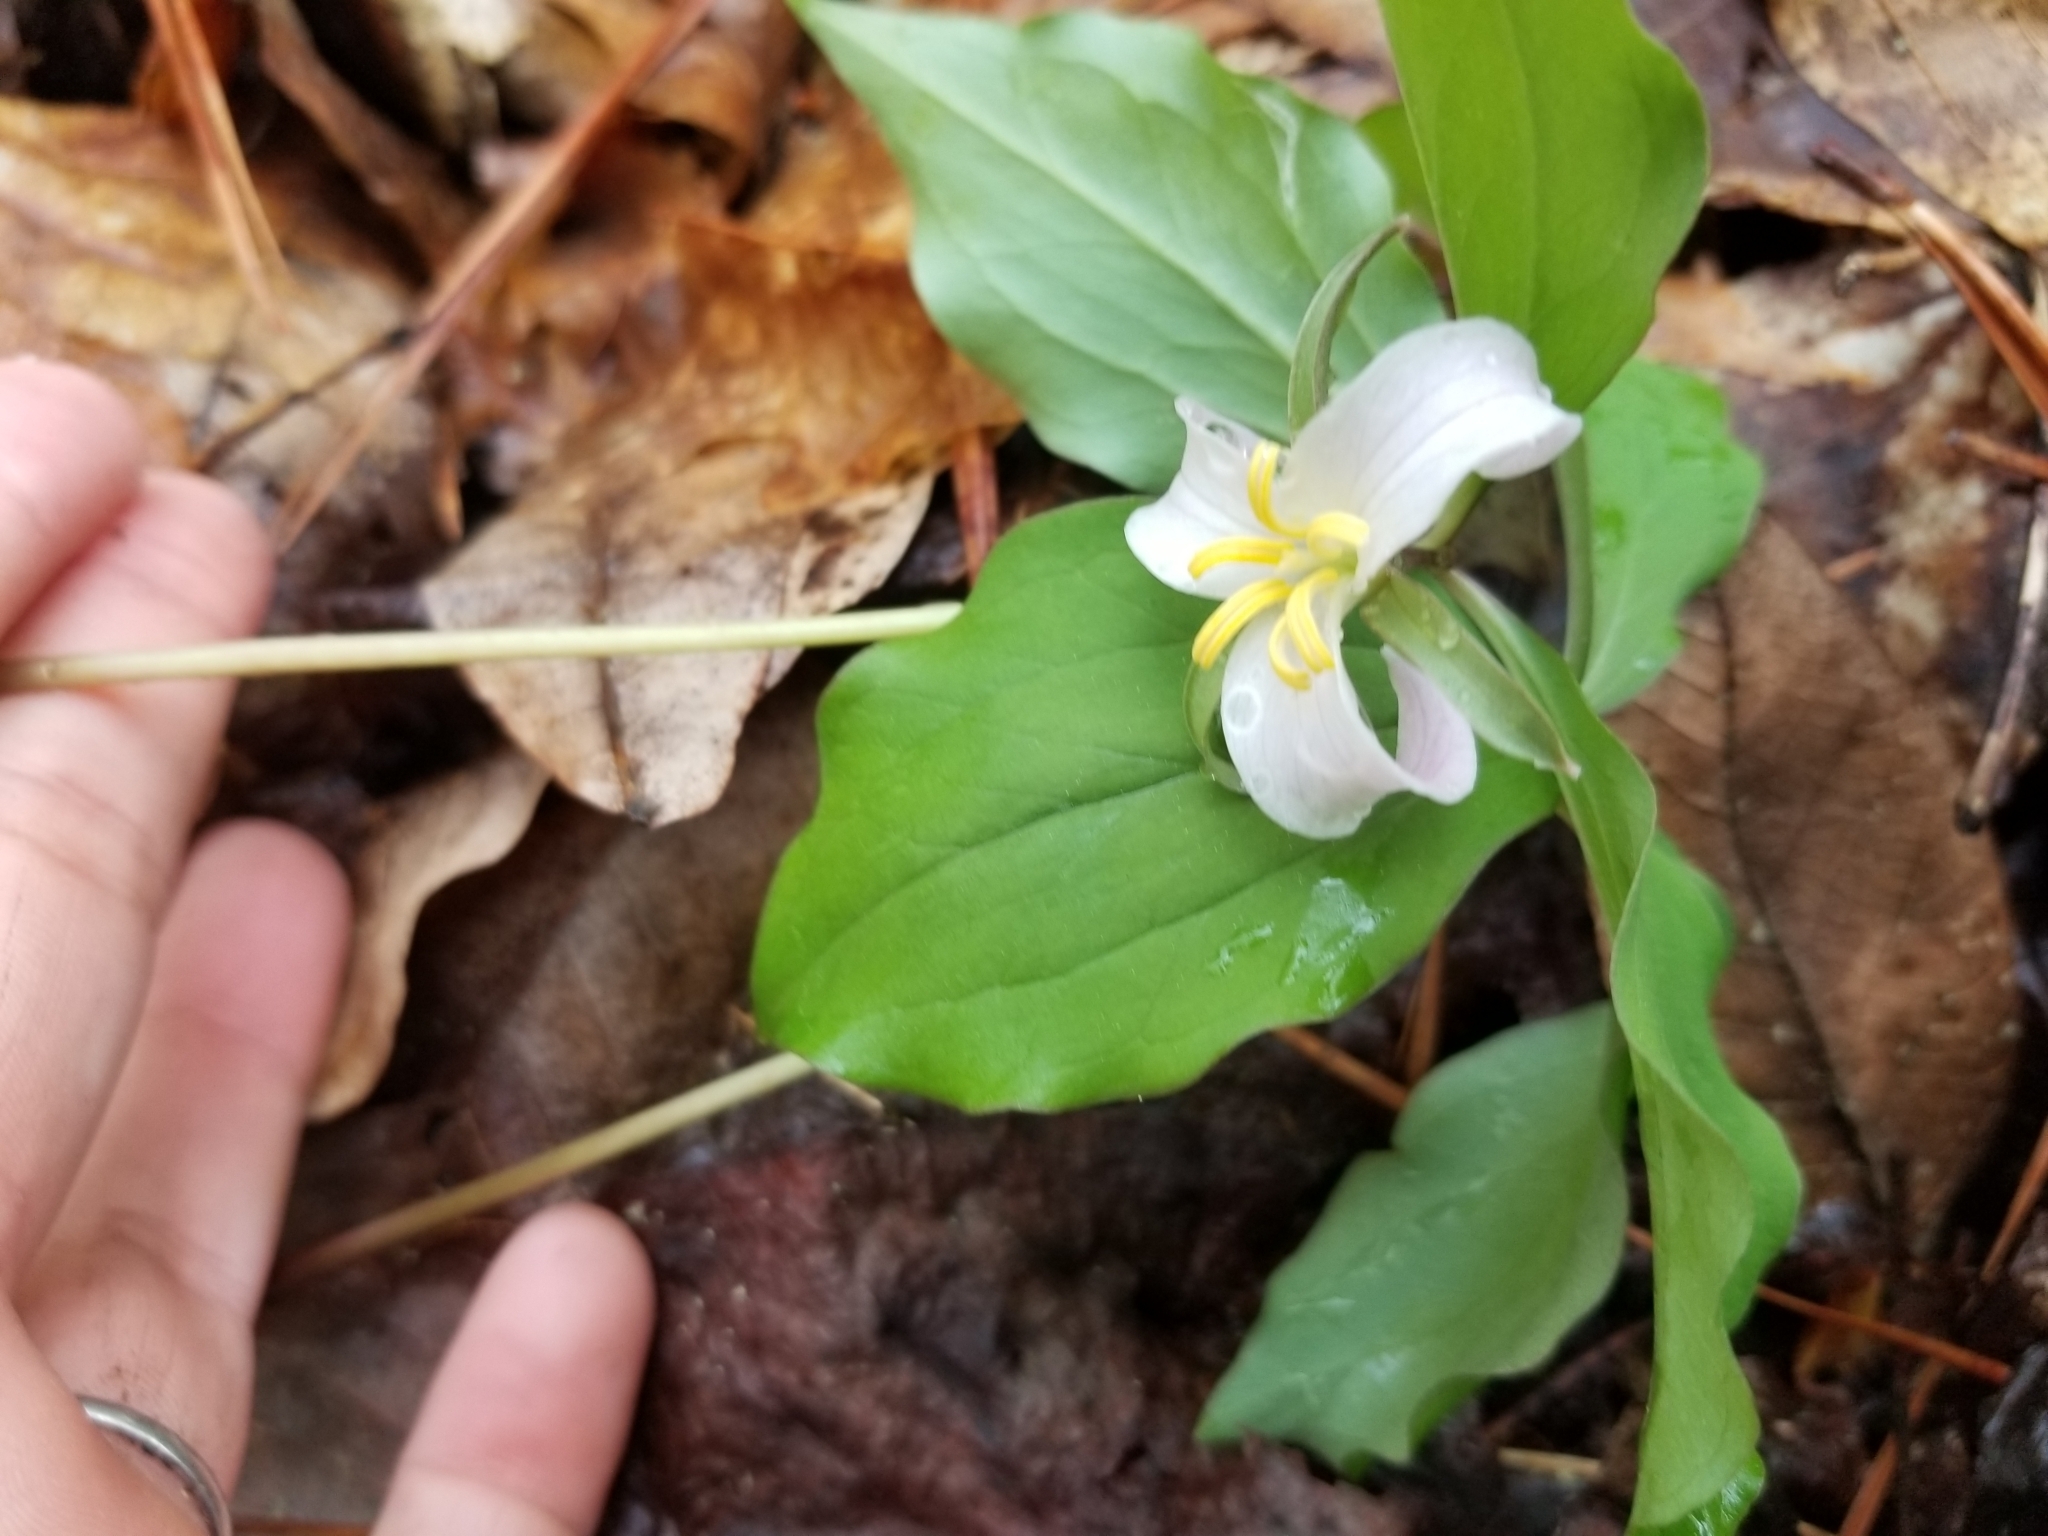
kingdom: Plantae
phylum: Tracheophyta
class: Liliopsida
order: Liliales
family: Melanthiaceae
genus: Trillium
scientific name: Trillium catesbaei
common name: Bashful trillium
